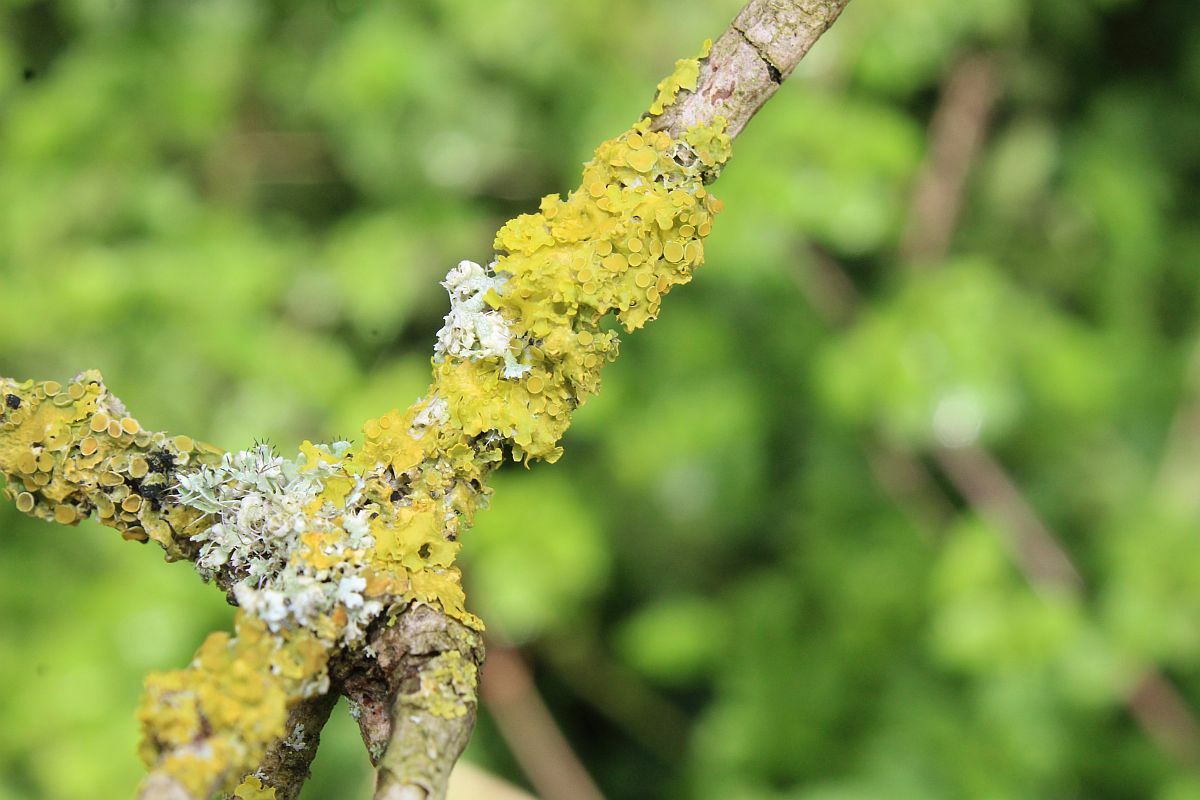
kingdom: Fungi
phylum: Ascomycota
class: Lecanoromycetes
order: Teloschistales
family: Teloschistaceae
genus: Xanthoria
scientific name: Xanthoria parietina
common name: Common orange lichen
